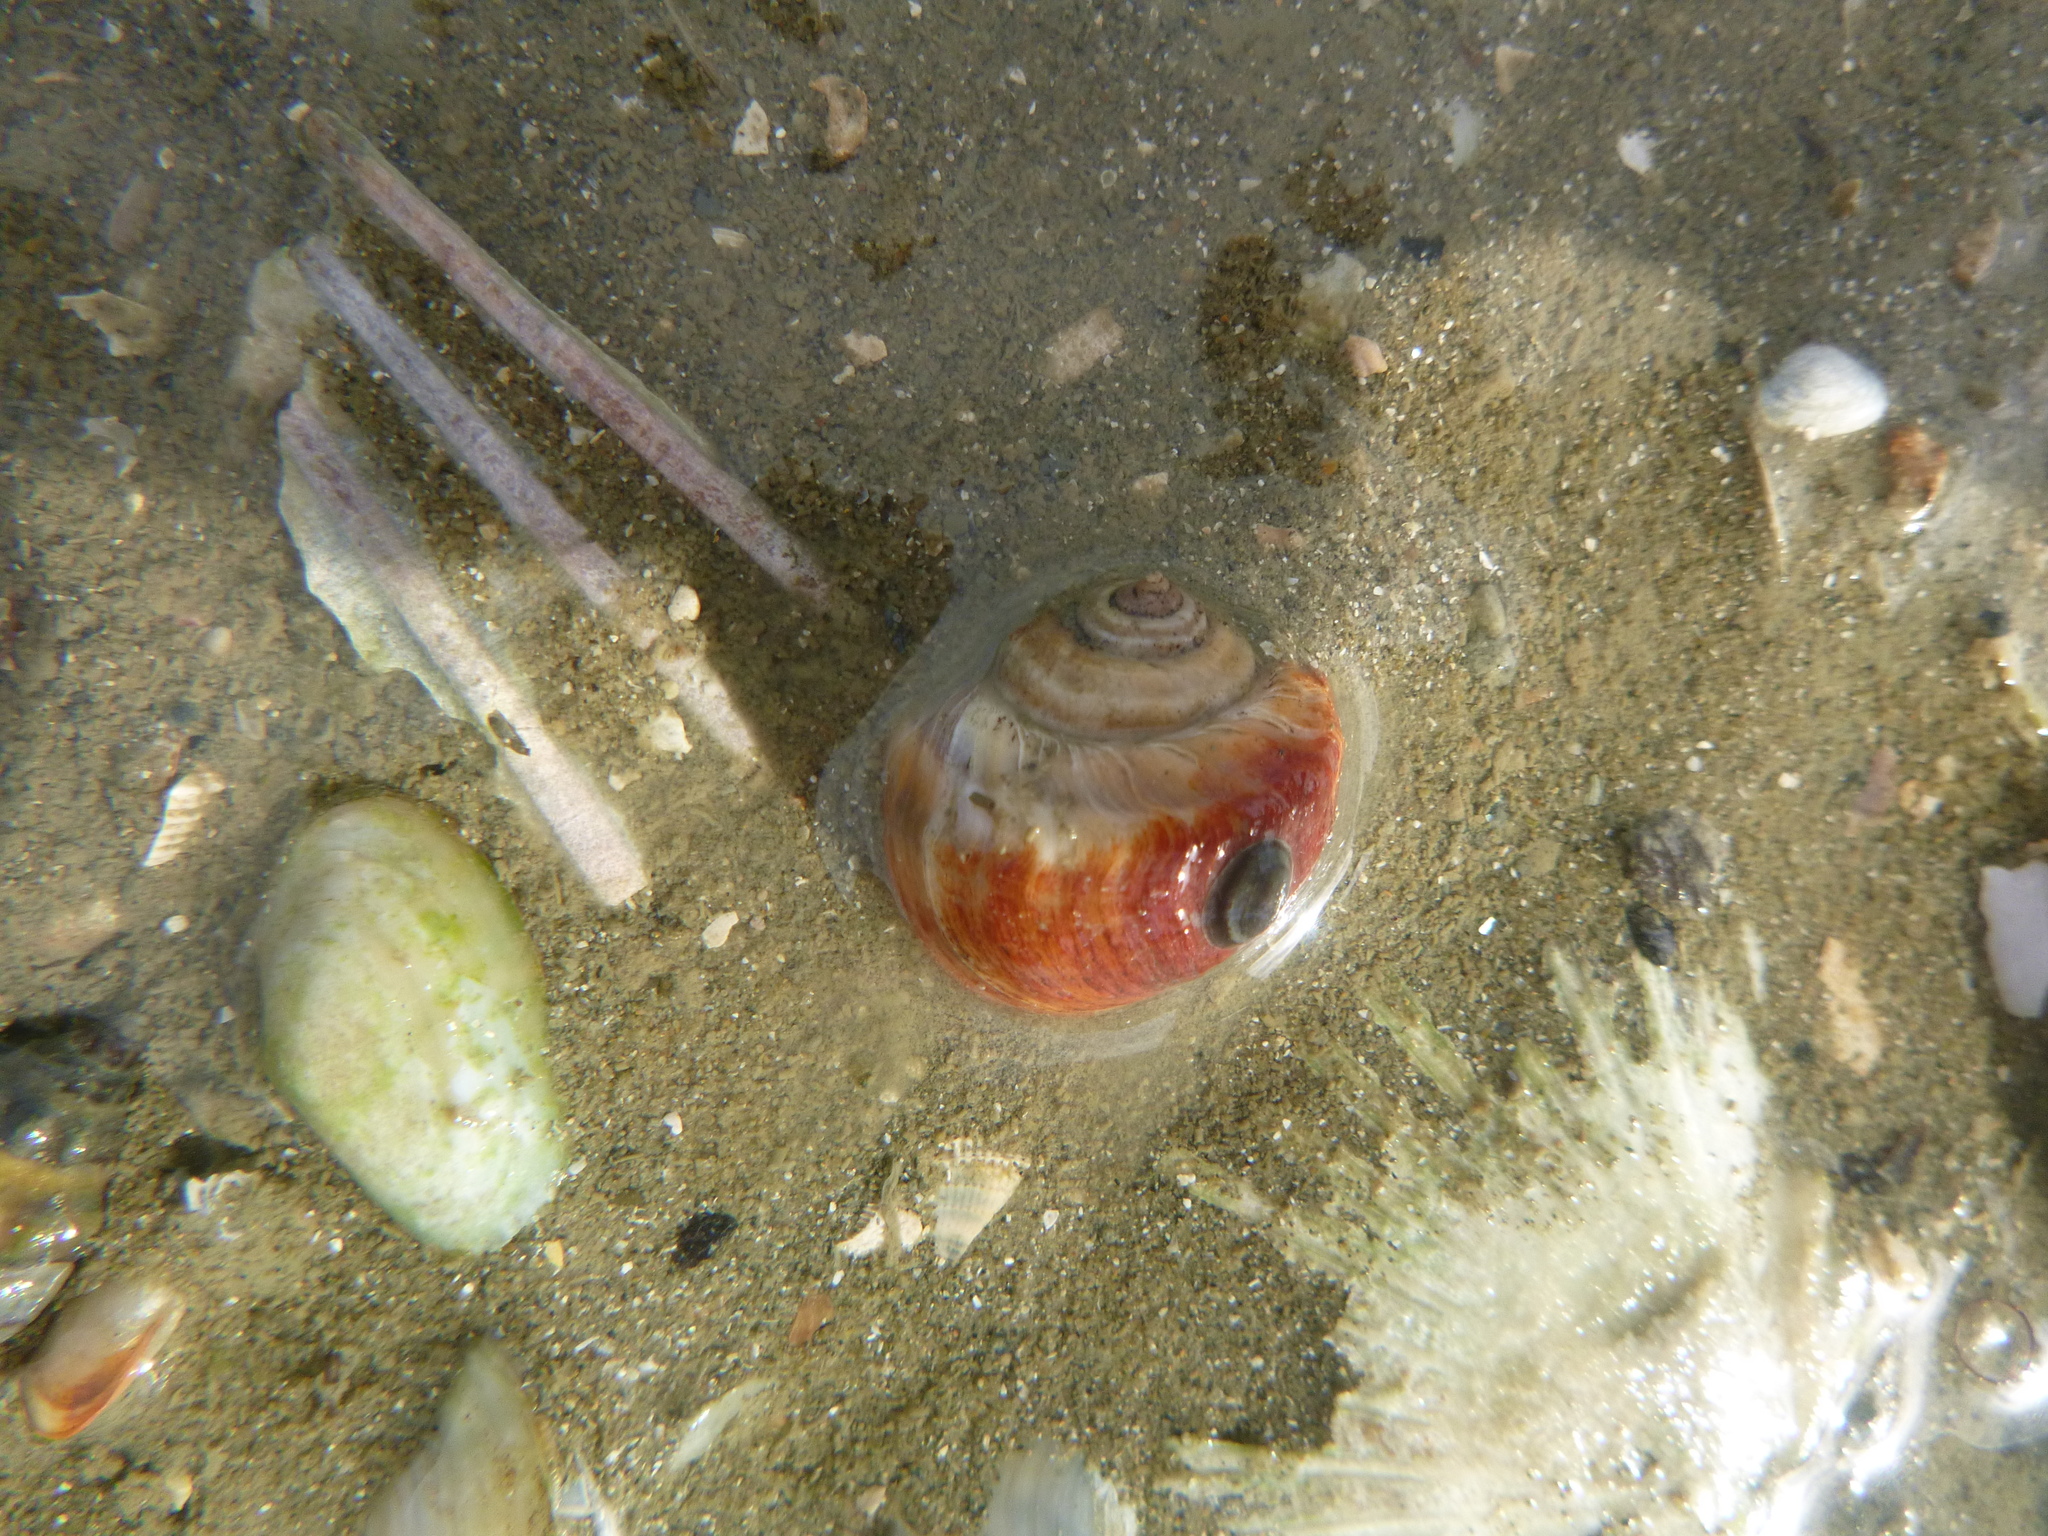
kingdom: Animalia
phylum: Mollusca
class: Gastropoda
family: Amphibolidae
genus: Amphibola
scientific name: Amphibola crenata
